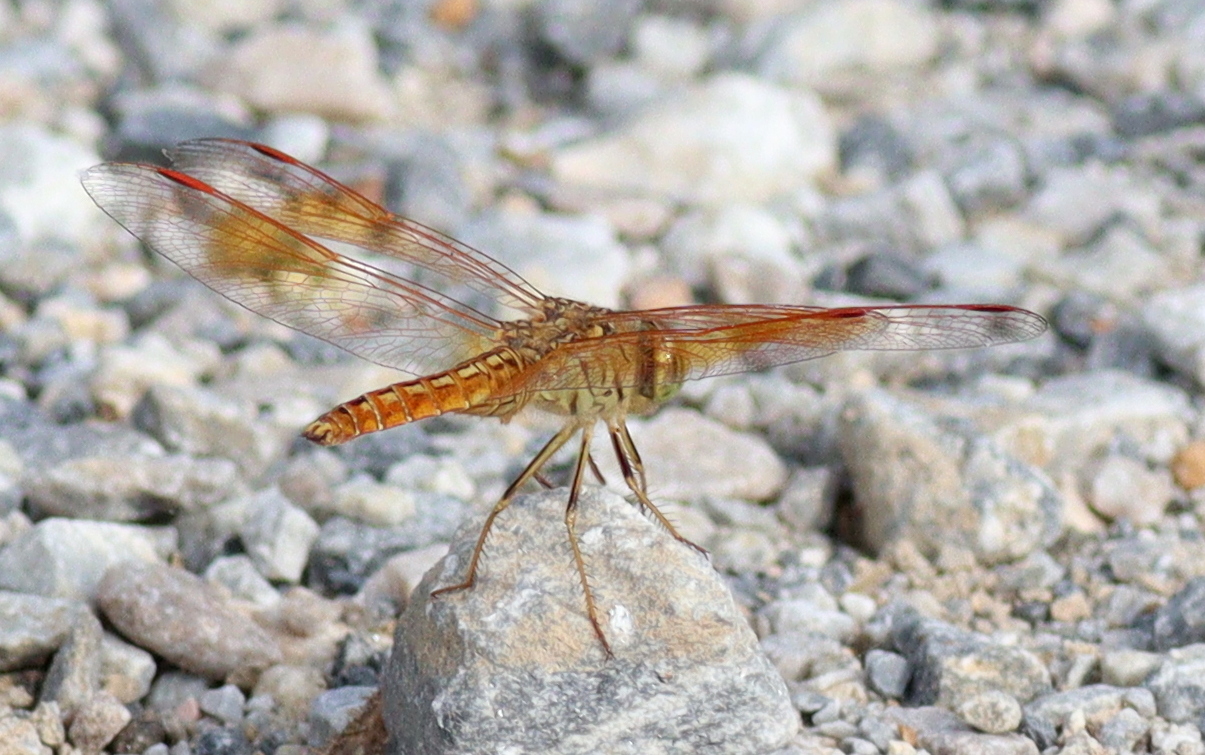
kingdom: Animalia
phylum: Arthropoda
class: Insecta
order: Odonata
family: Libellulidae
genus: Brachythemis
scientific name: Brachythemis contaminata
